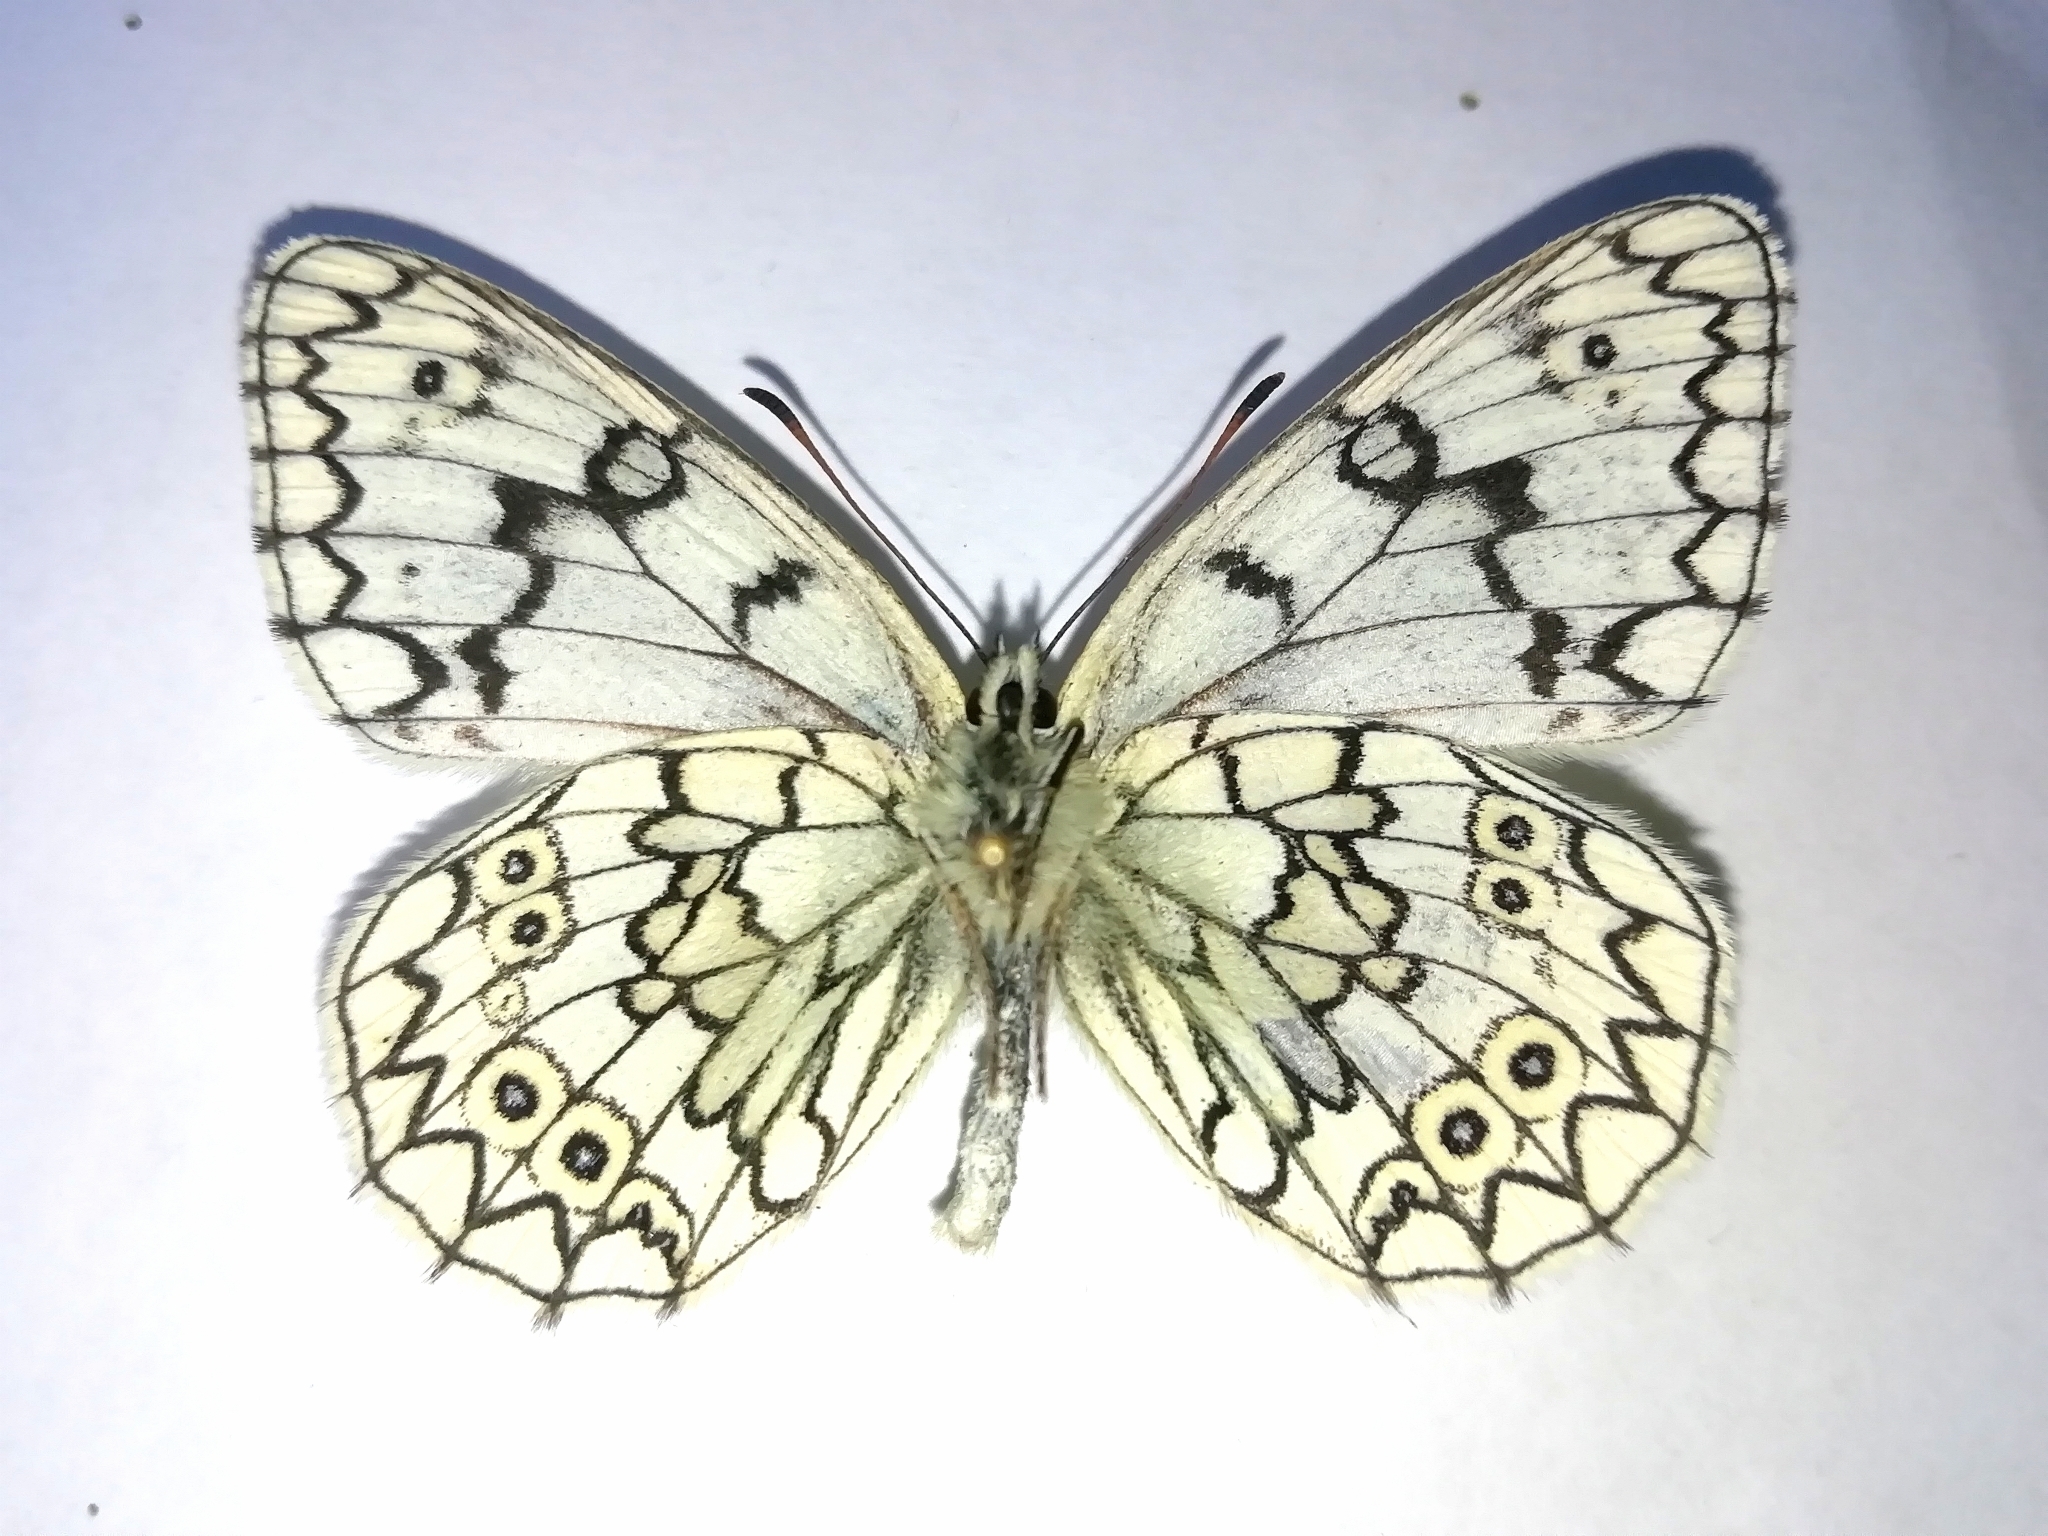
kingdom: Animalia
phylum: Arthropoda
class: Insecta
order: Lepidoptera
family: Nymphalidae
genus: Melanargia
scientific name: Melanargia japygia
